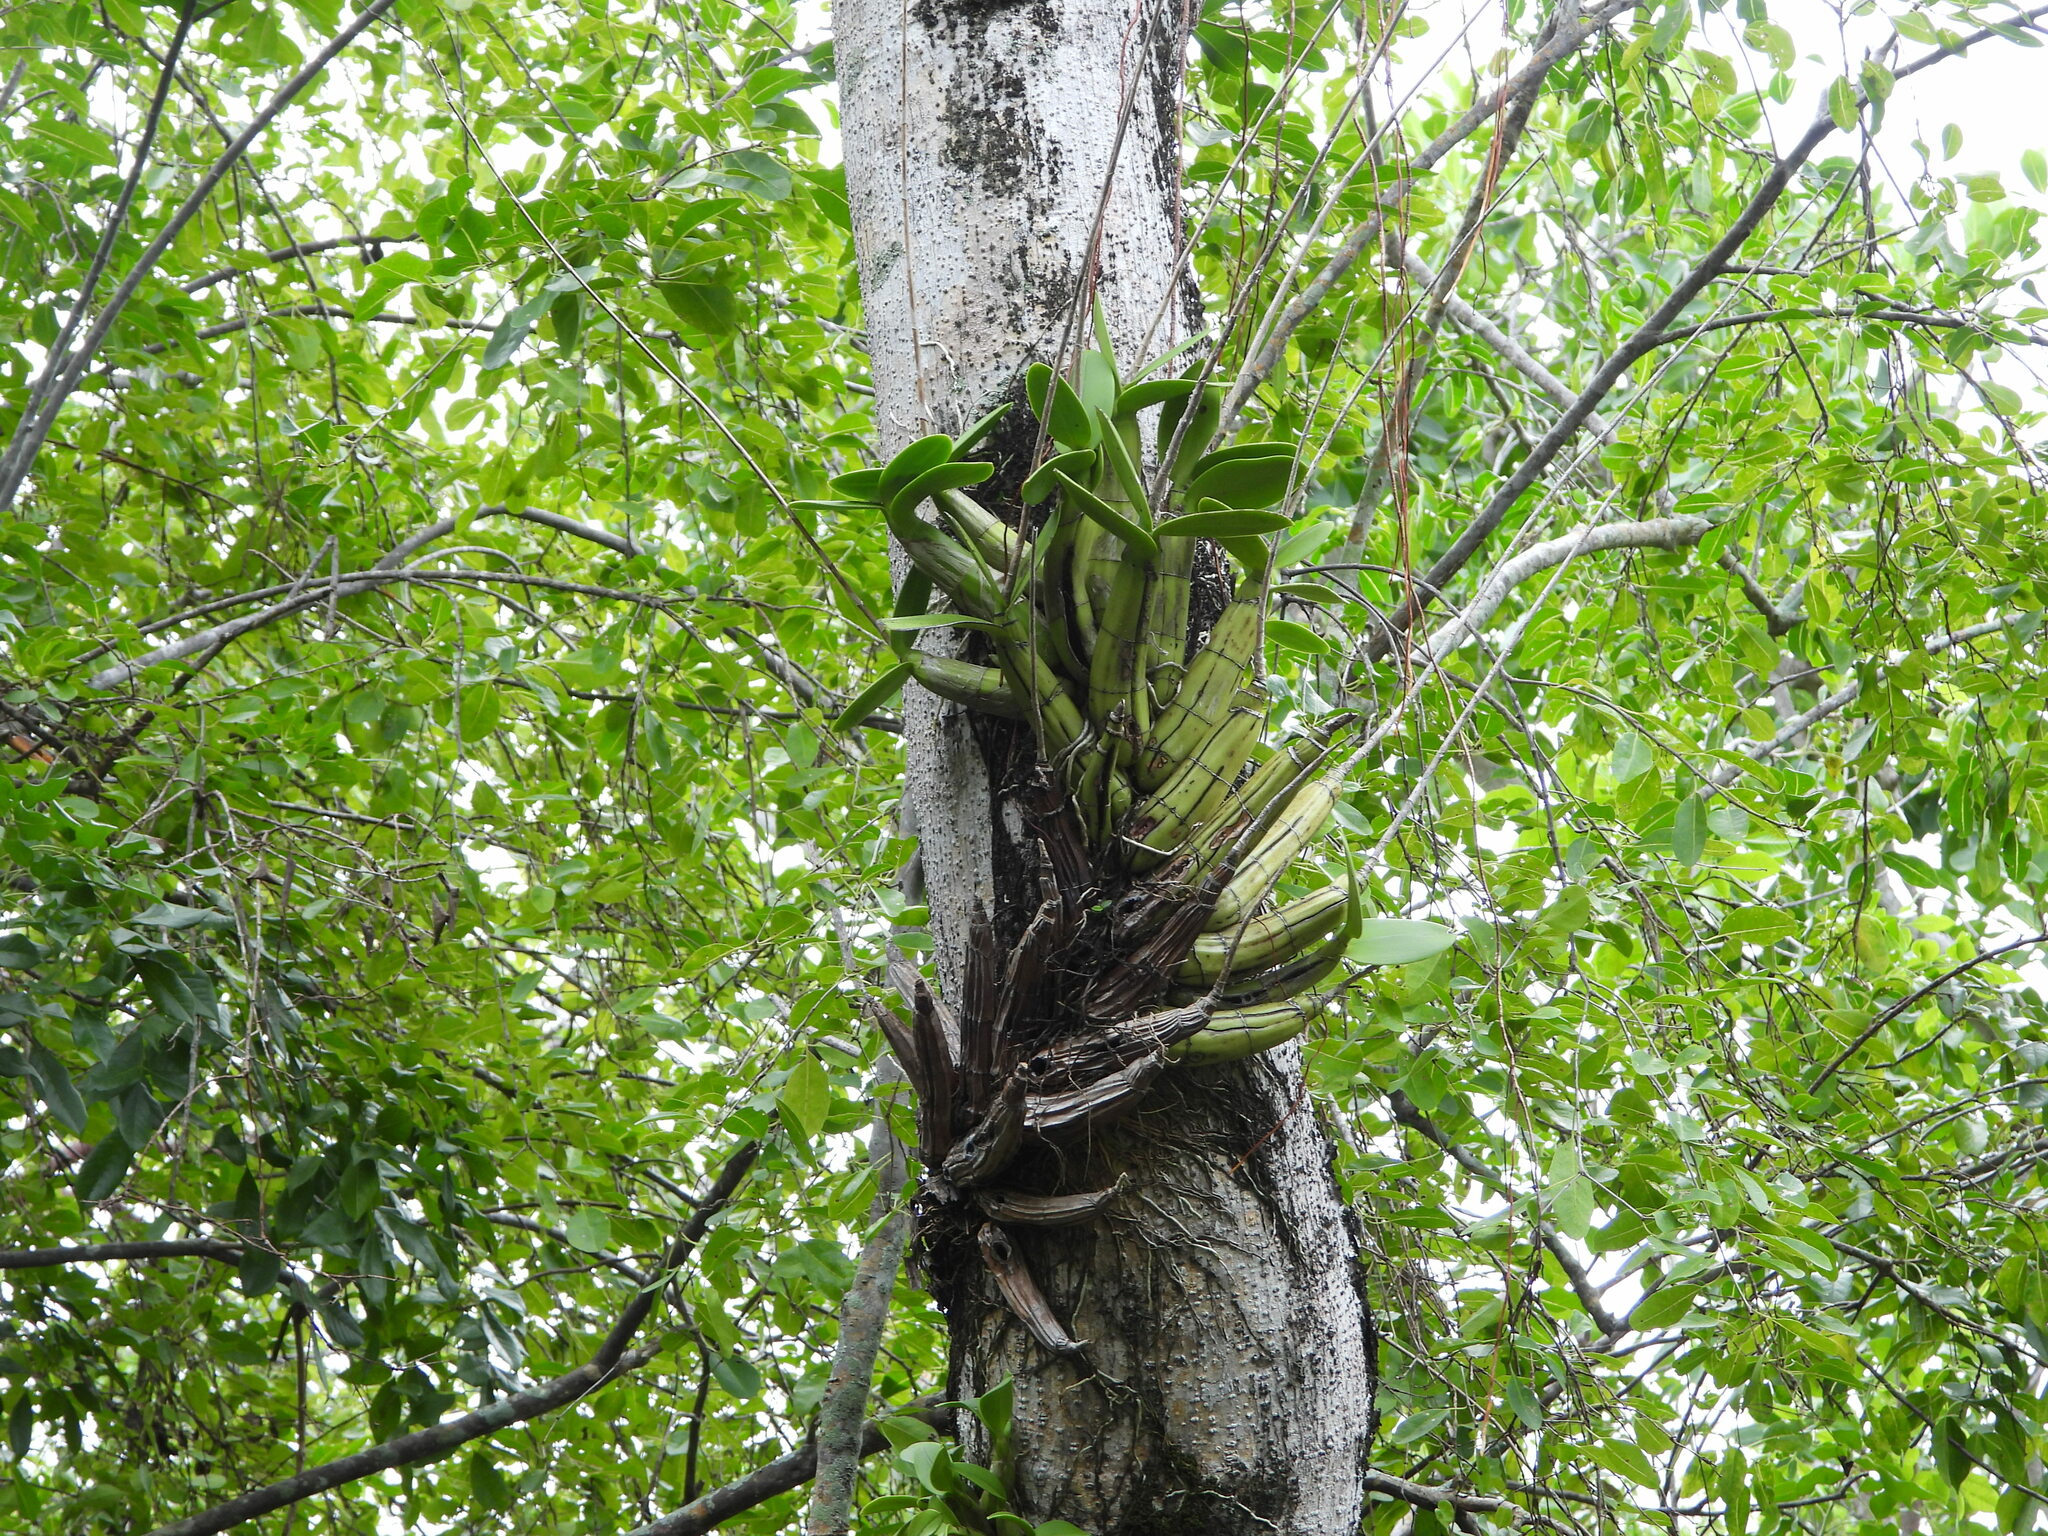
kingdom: Plantae
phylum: Tracheophyta
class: Liliopsida
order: Asparagales
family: Orchidaceae
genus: Myrmecophila
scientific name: Myrmecophila thomsoniana
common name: Banana orchid
